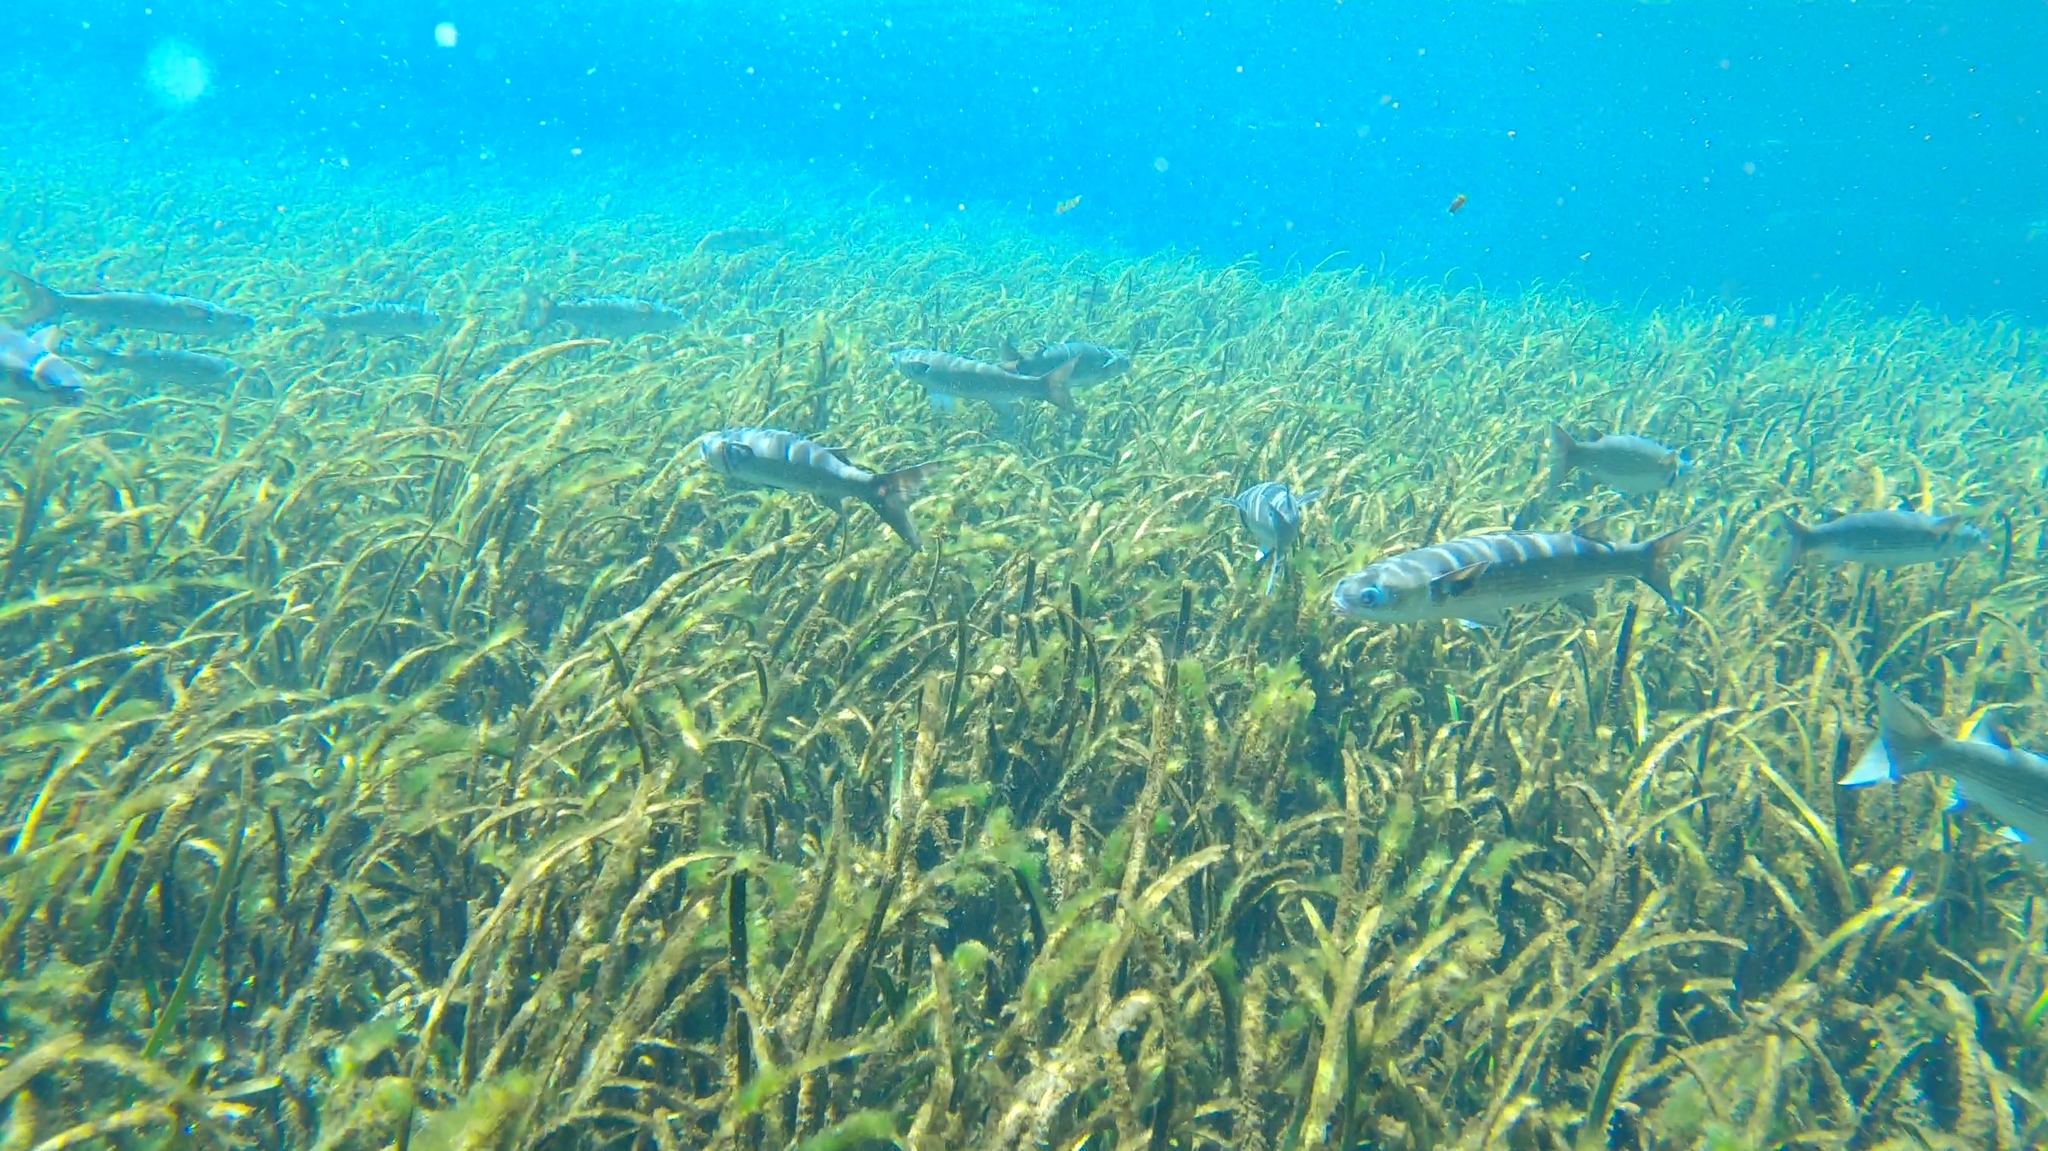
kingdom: Animalia
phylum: Chordata
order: Mugiliformes
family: Mugilidae
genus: Mugil
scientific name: Mugil cephalus
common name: Grey mullet
